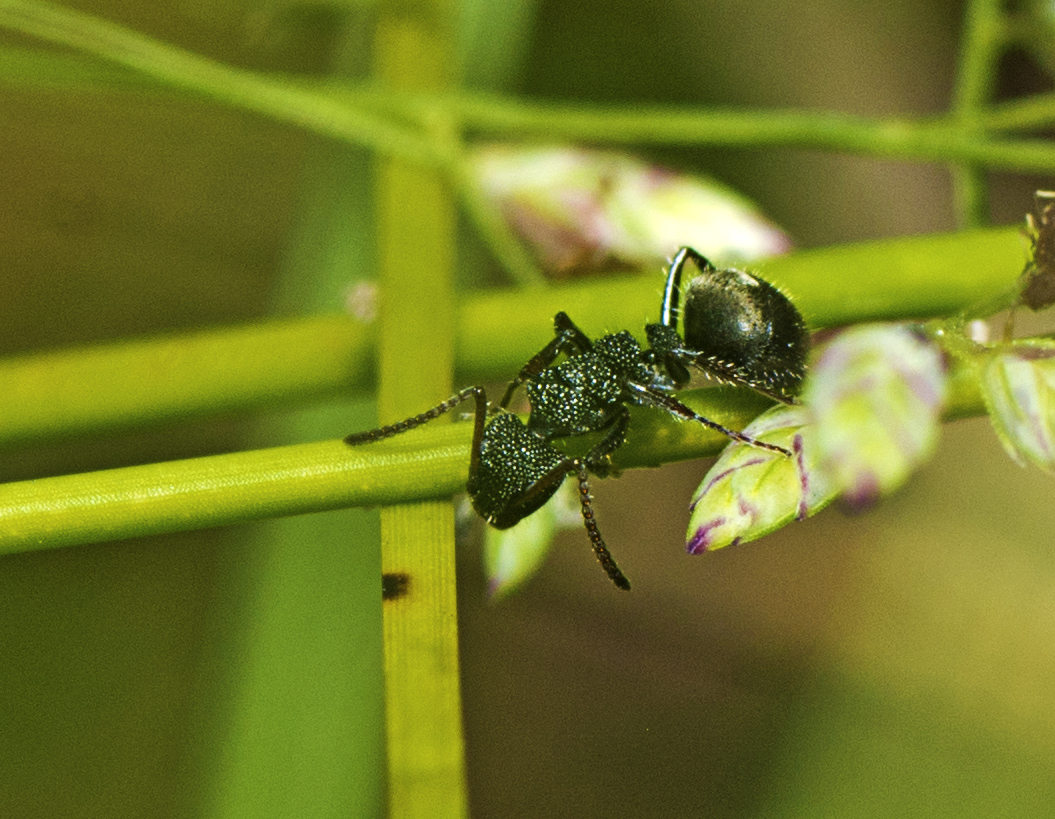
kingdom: Animalia
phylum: Arthropoda
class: Insecta
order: Hymenoptera
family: Formicidae
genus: Dolichoderus
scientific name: Dolichoderus scrobiculatus
